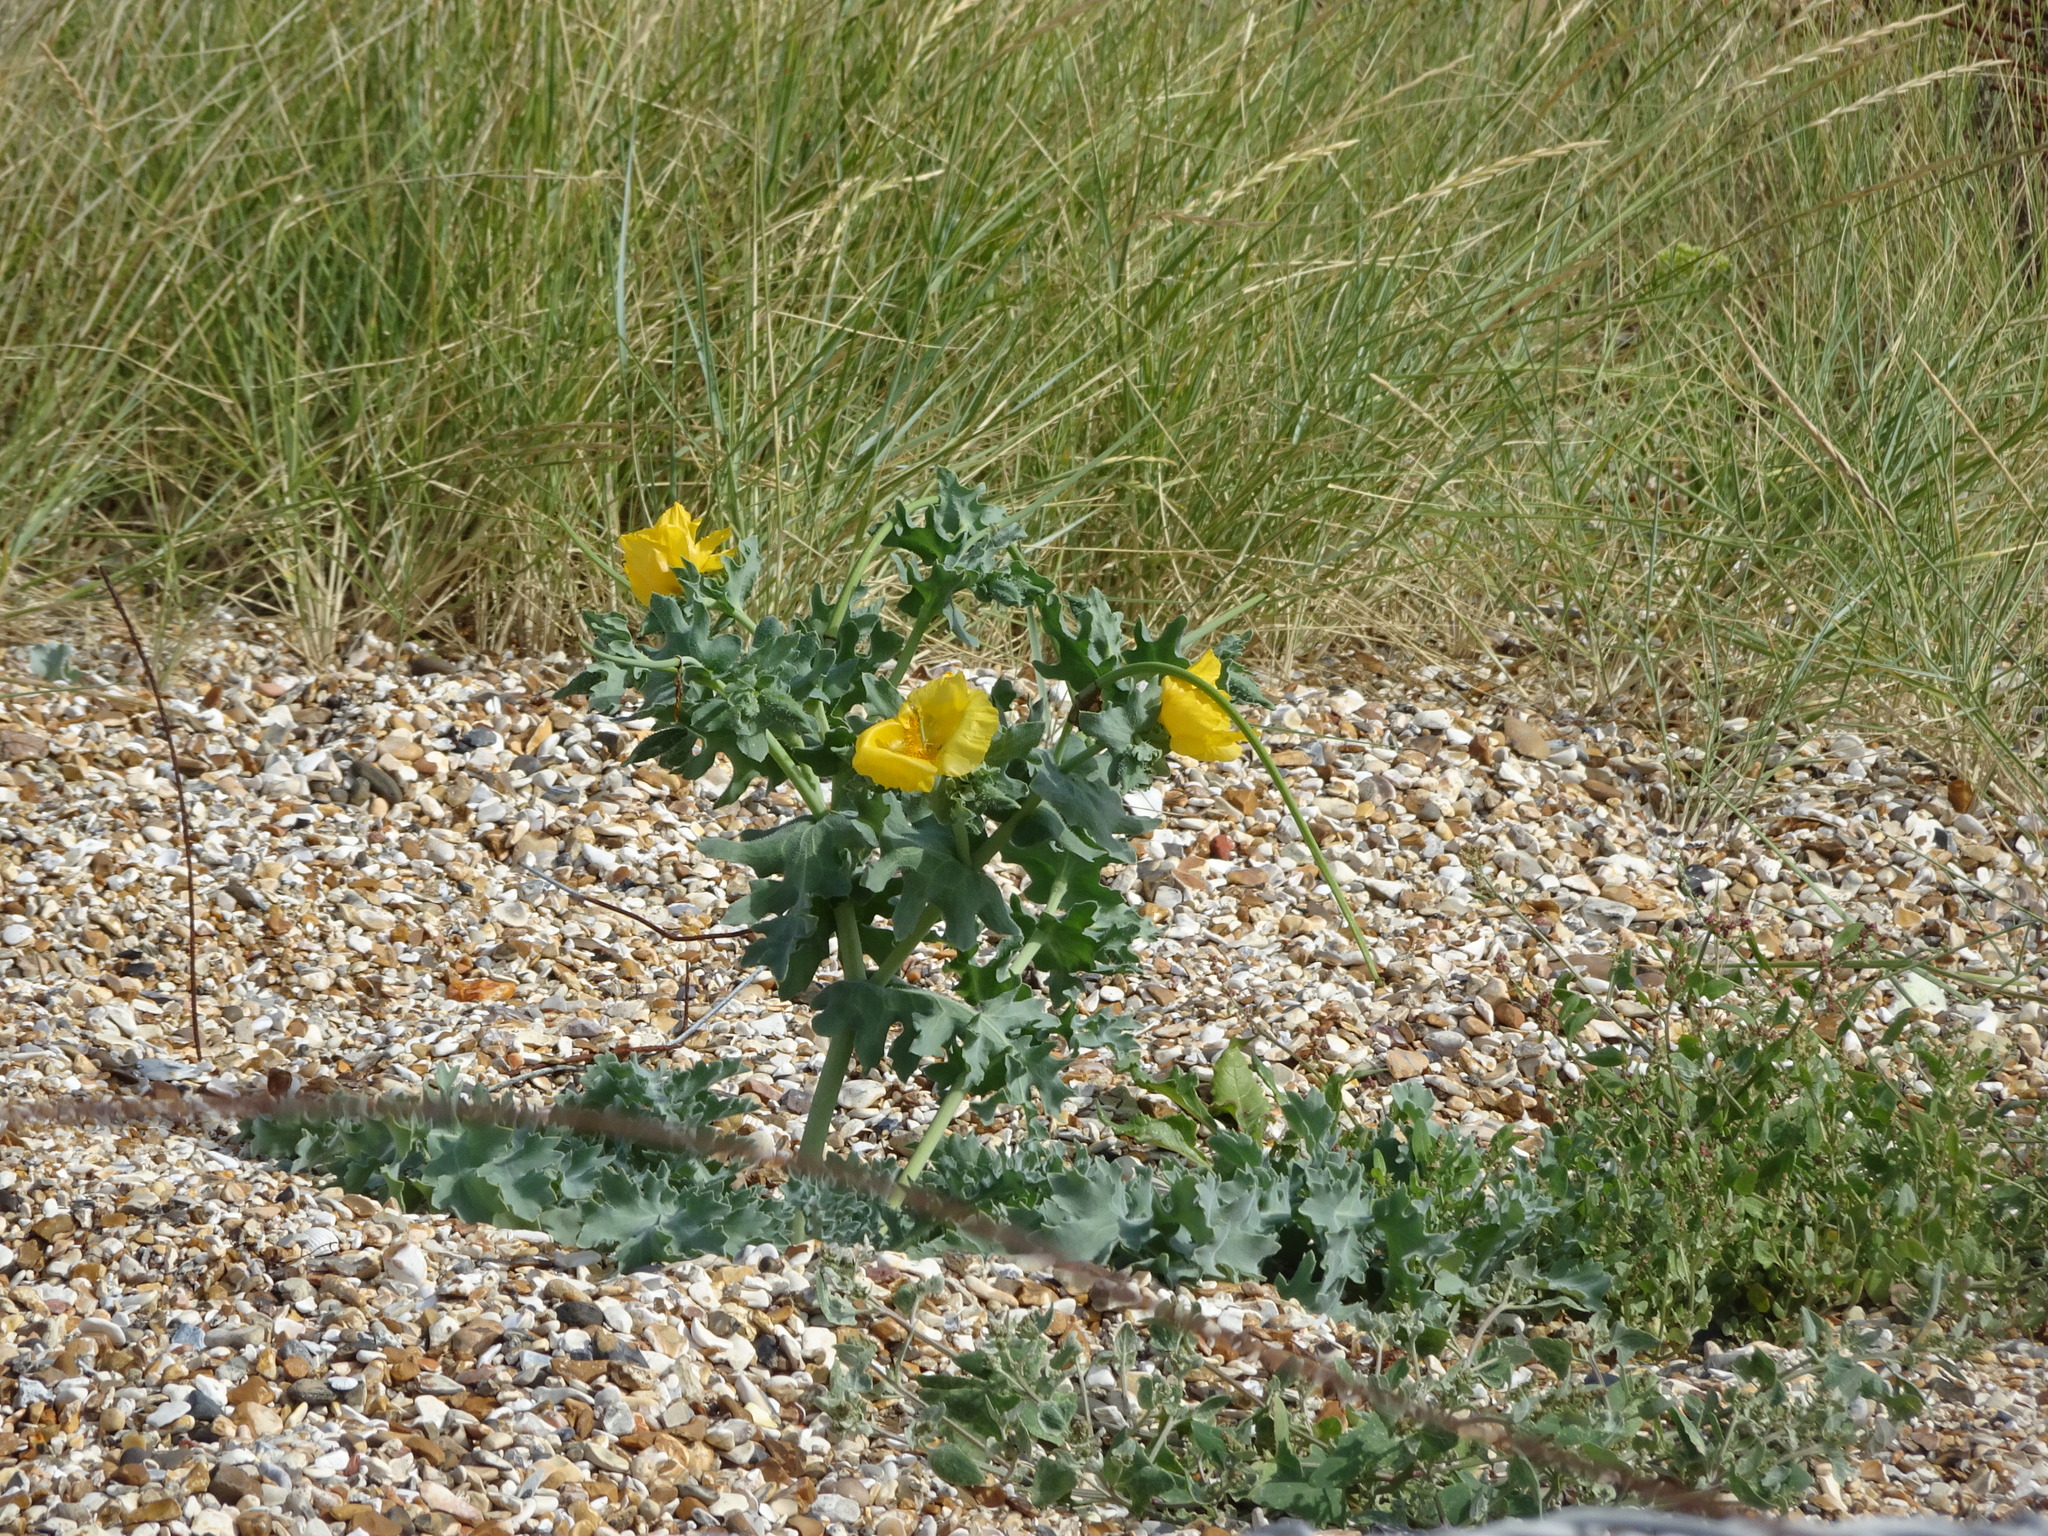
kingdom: Plantae
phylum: Tracheophyta
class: Magnoliopsida
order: Ranunculales
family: Papaveraceae
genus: Glaucium
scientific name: Glaucium flavum
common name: Yellow horned-poppy
